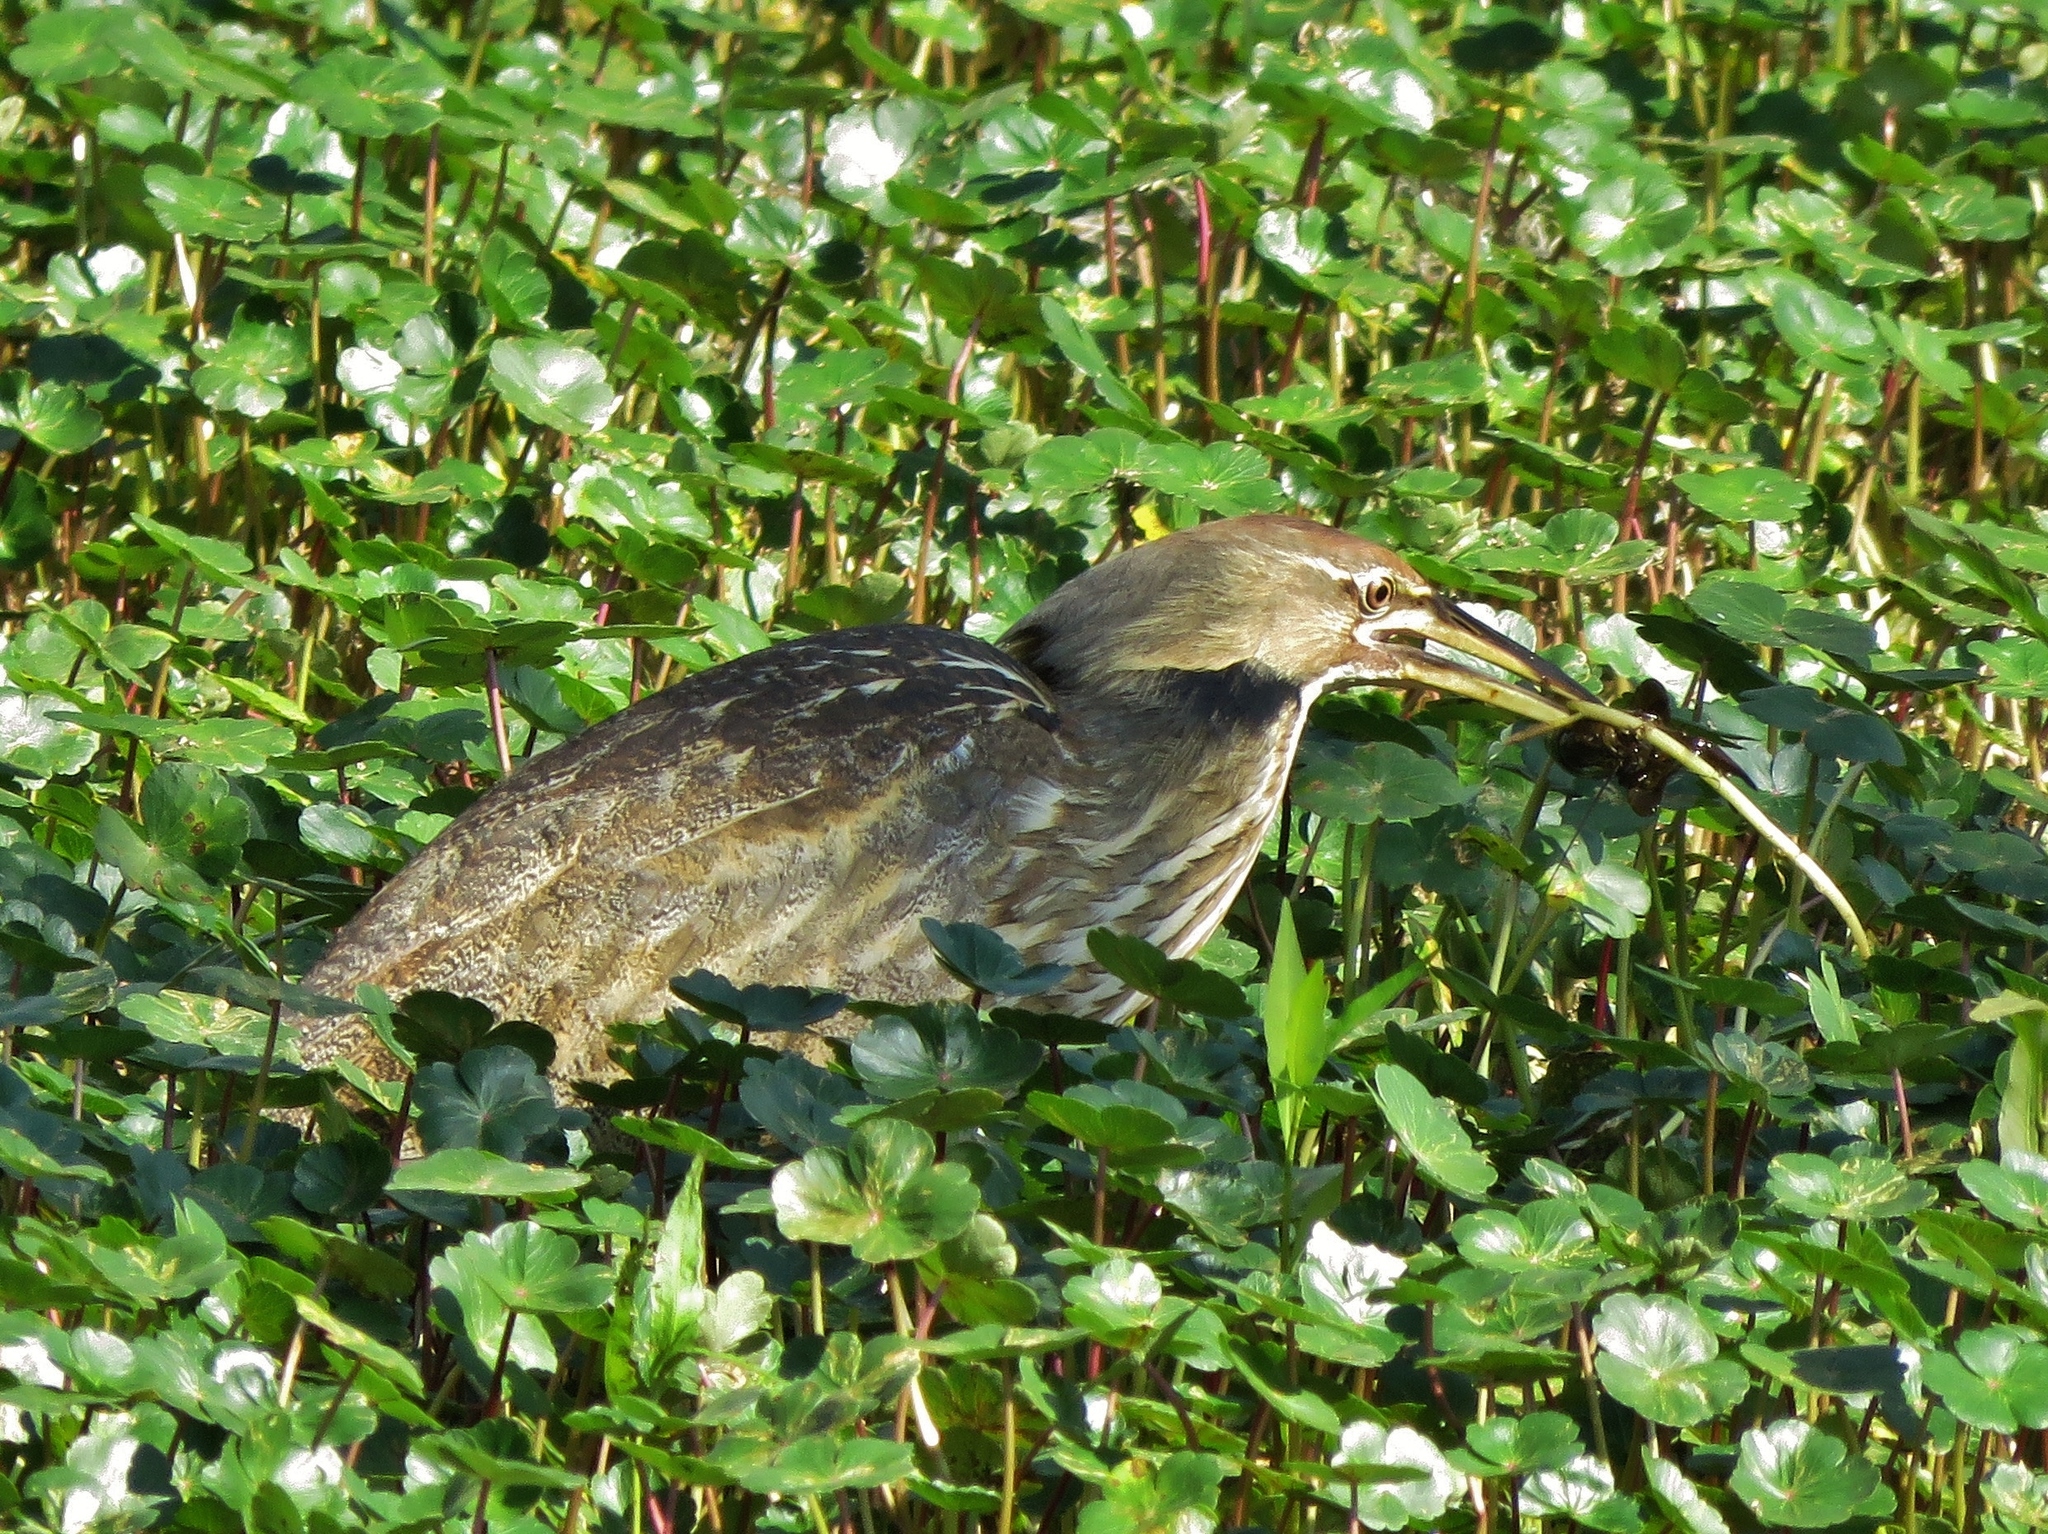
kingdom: Animalia
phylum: Chordata
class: Aves
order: Pelecaniformes
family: Ardeidae
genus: Botaurus
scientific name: Botaurus lentiginosus
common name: American bittern
